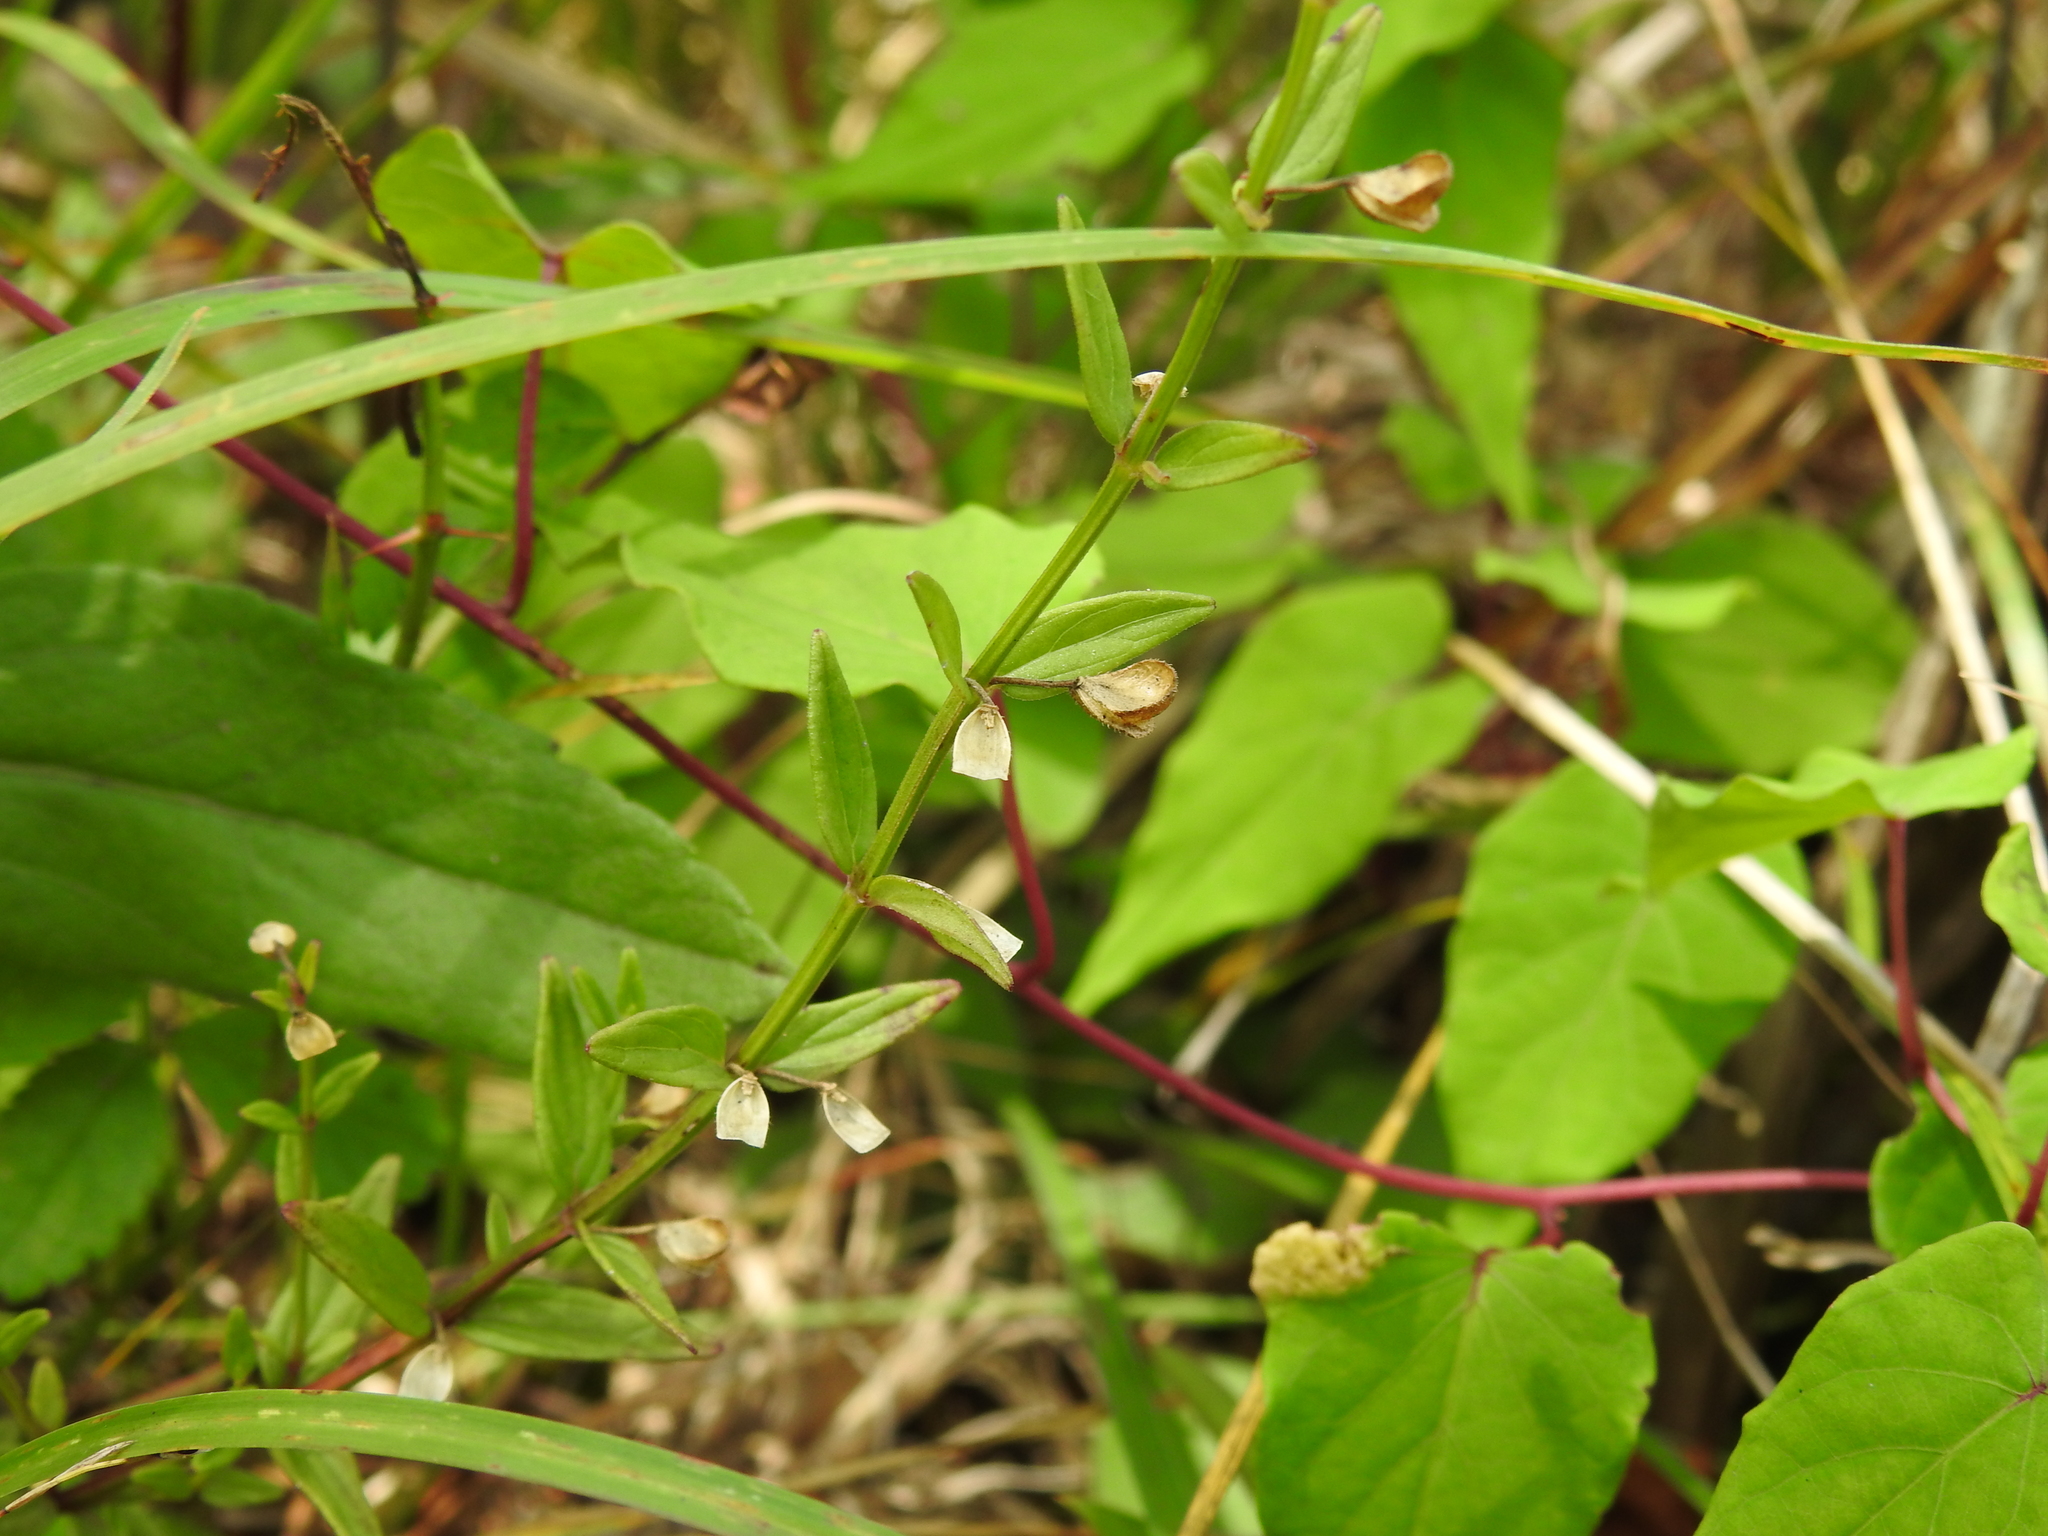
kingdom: Plantae
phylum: Tracheophyta
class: Magnoliopsida
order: Lamiales
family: Lamiaceae
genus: Scutellaria
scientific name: Scutellaria parvula
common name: Little scullcap
